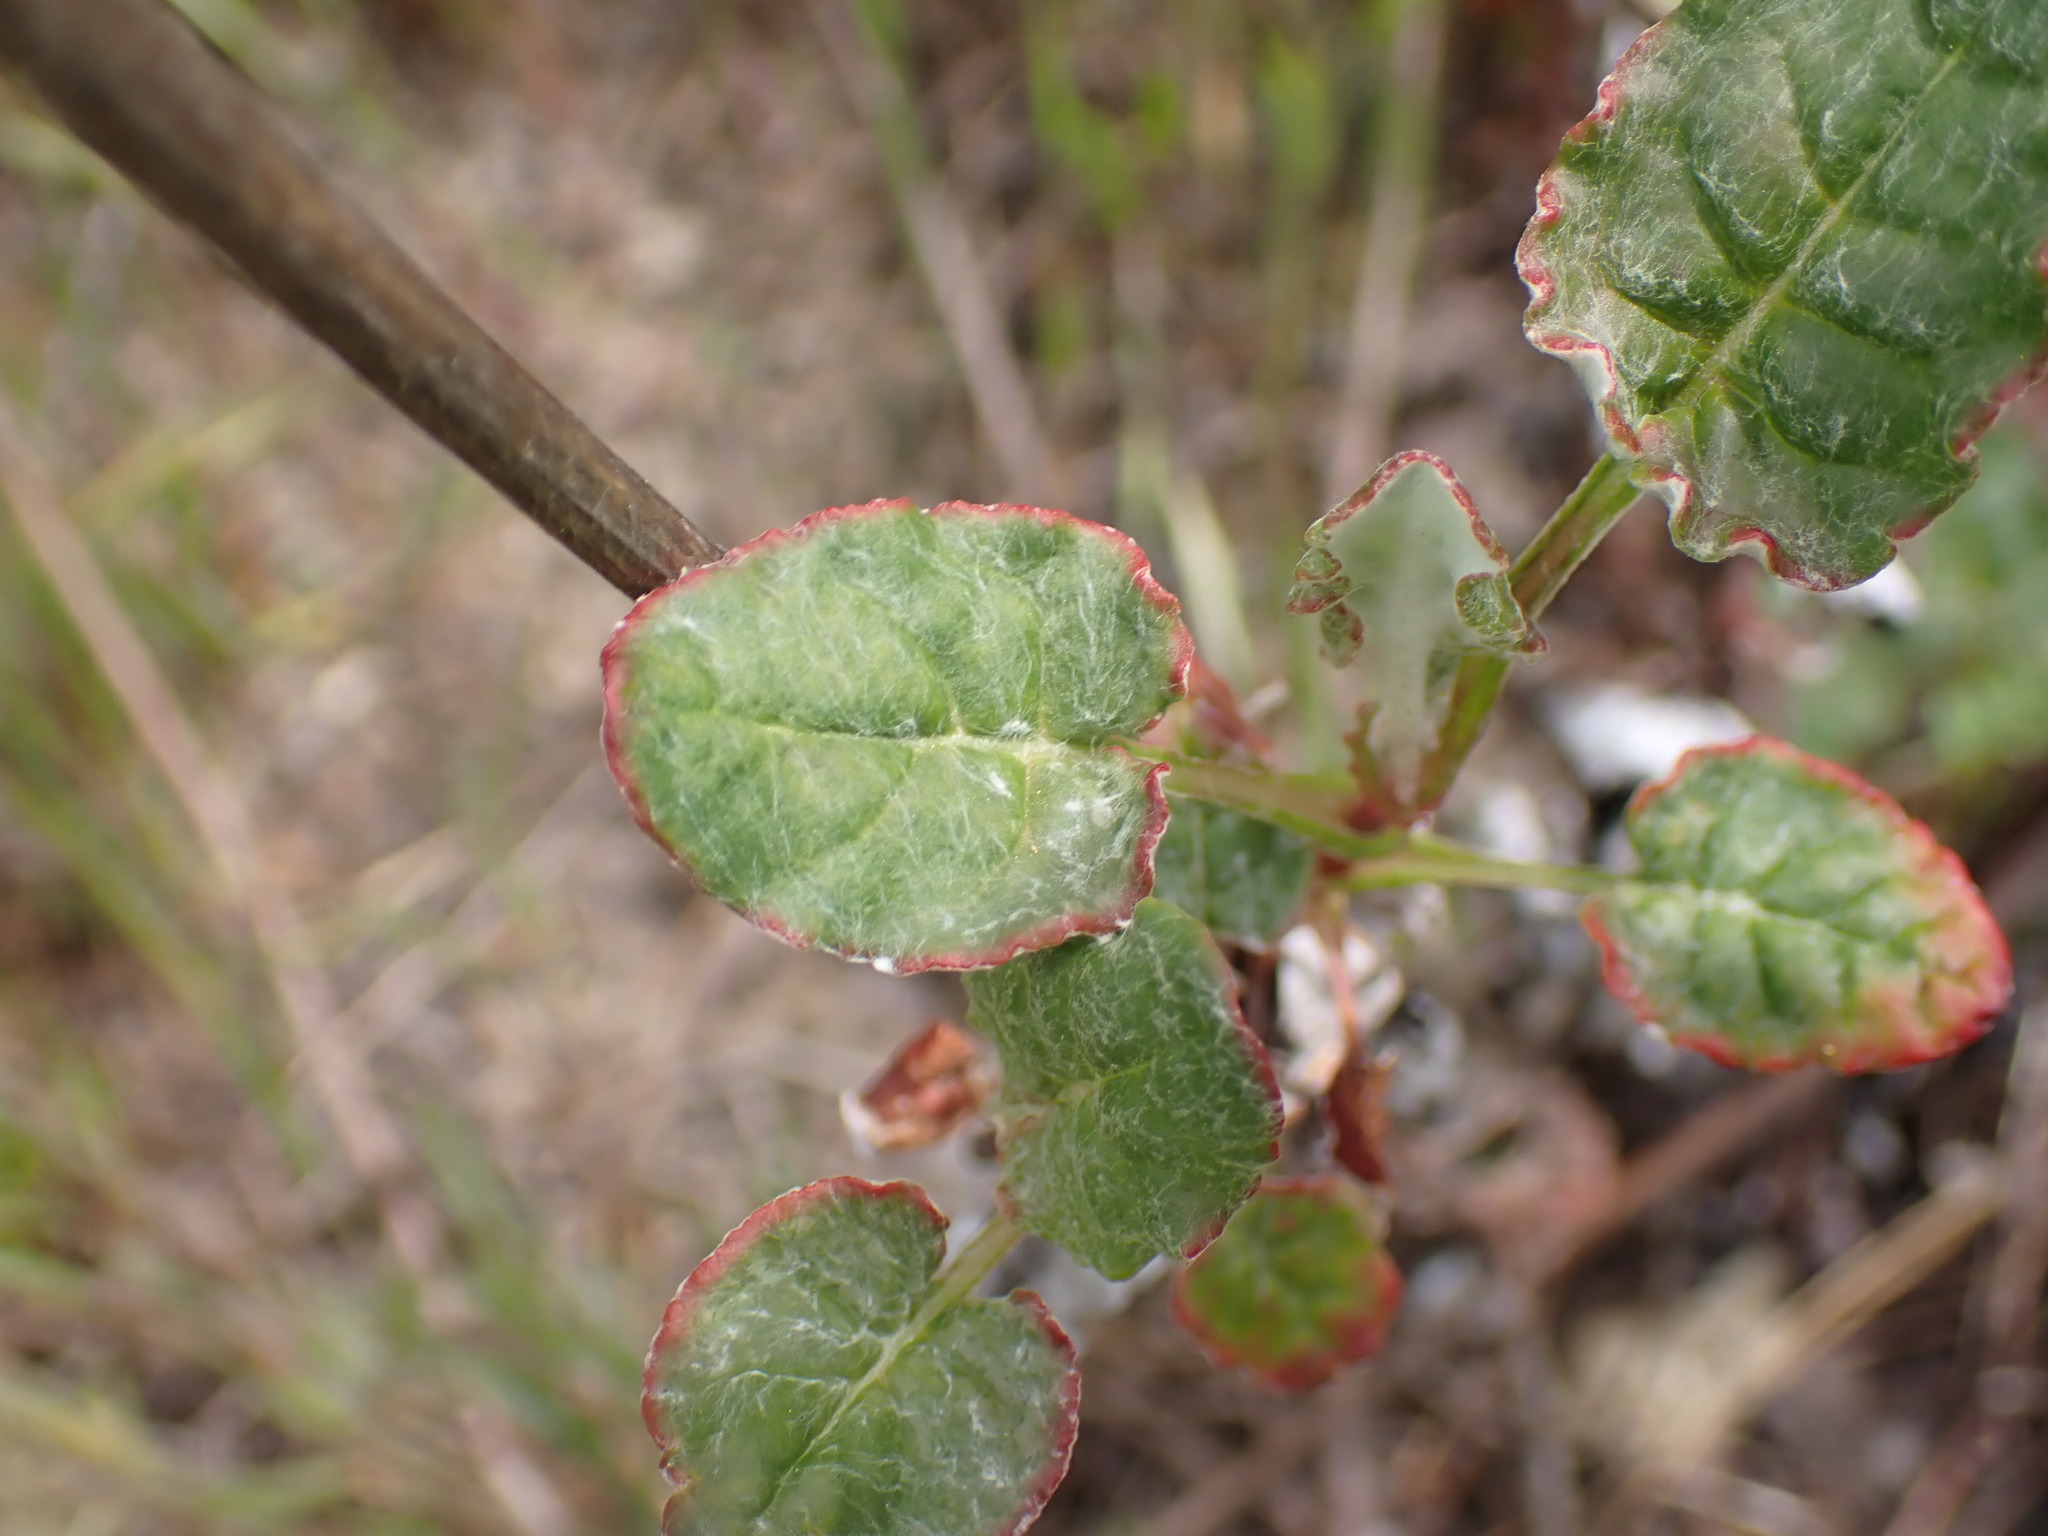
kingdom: Plantae
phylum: Tracheophyta
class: Magnoliopsida
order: Caryophyllales
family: Polygonaceae
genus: Eriogonum
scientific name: Eriogonum nudum
